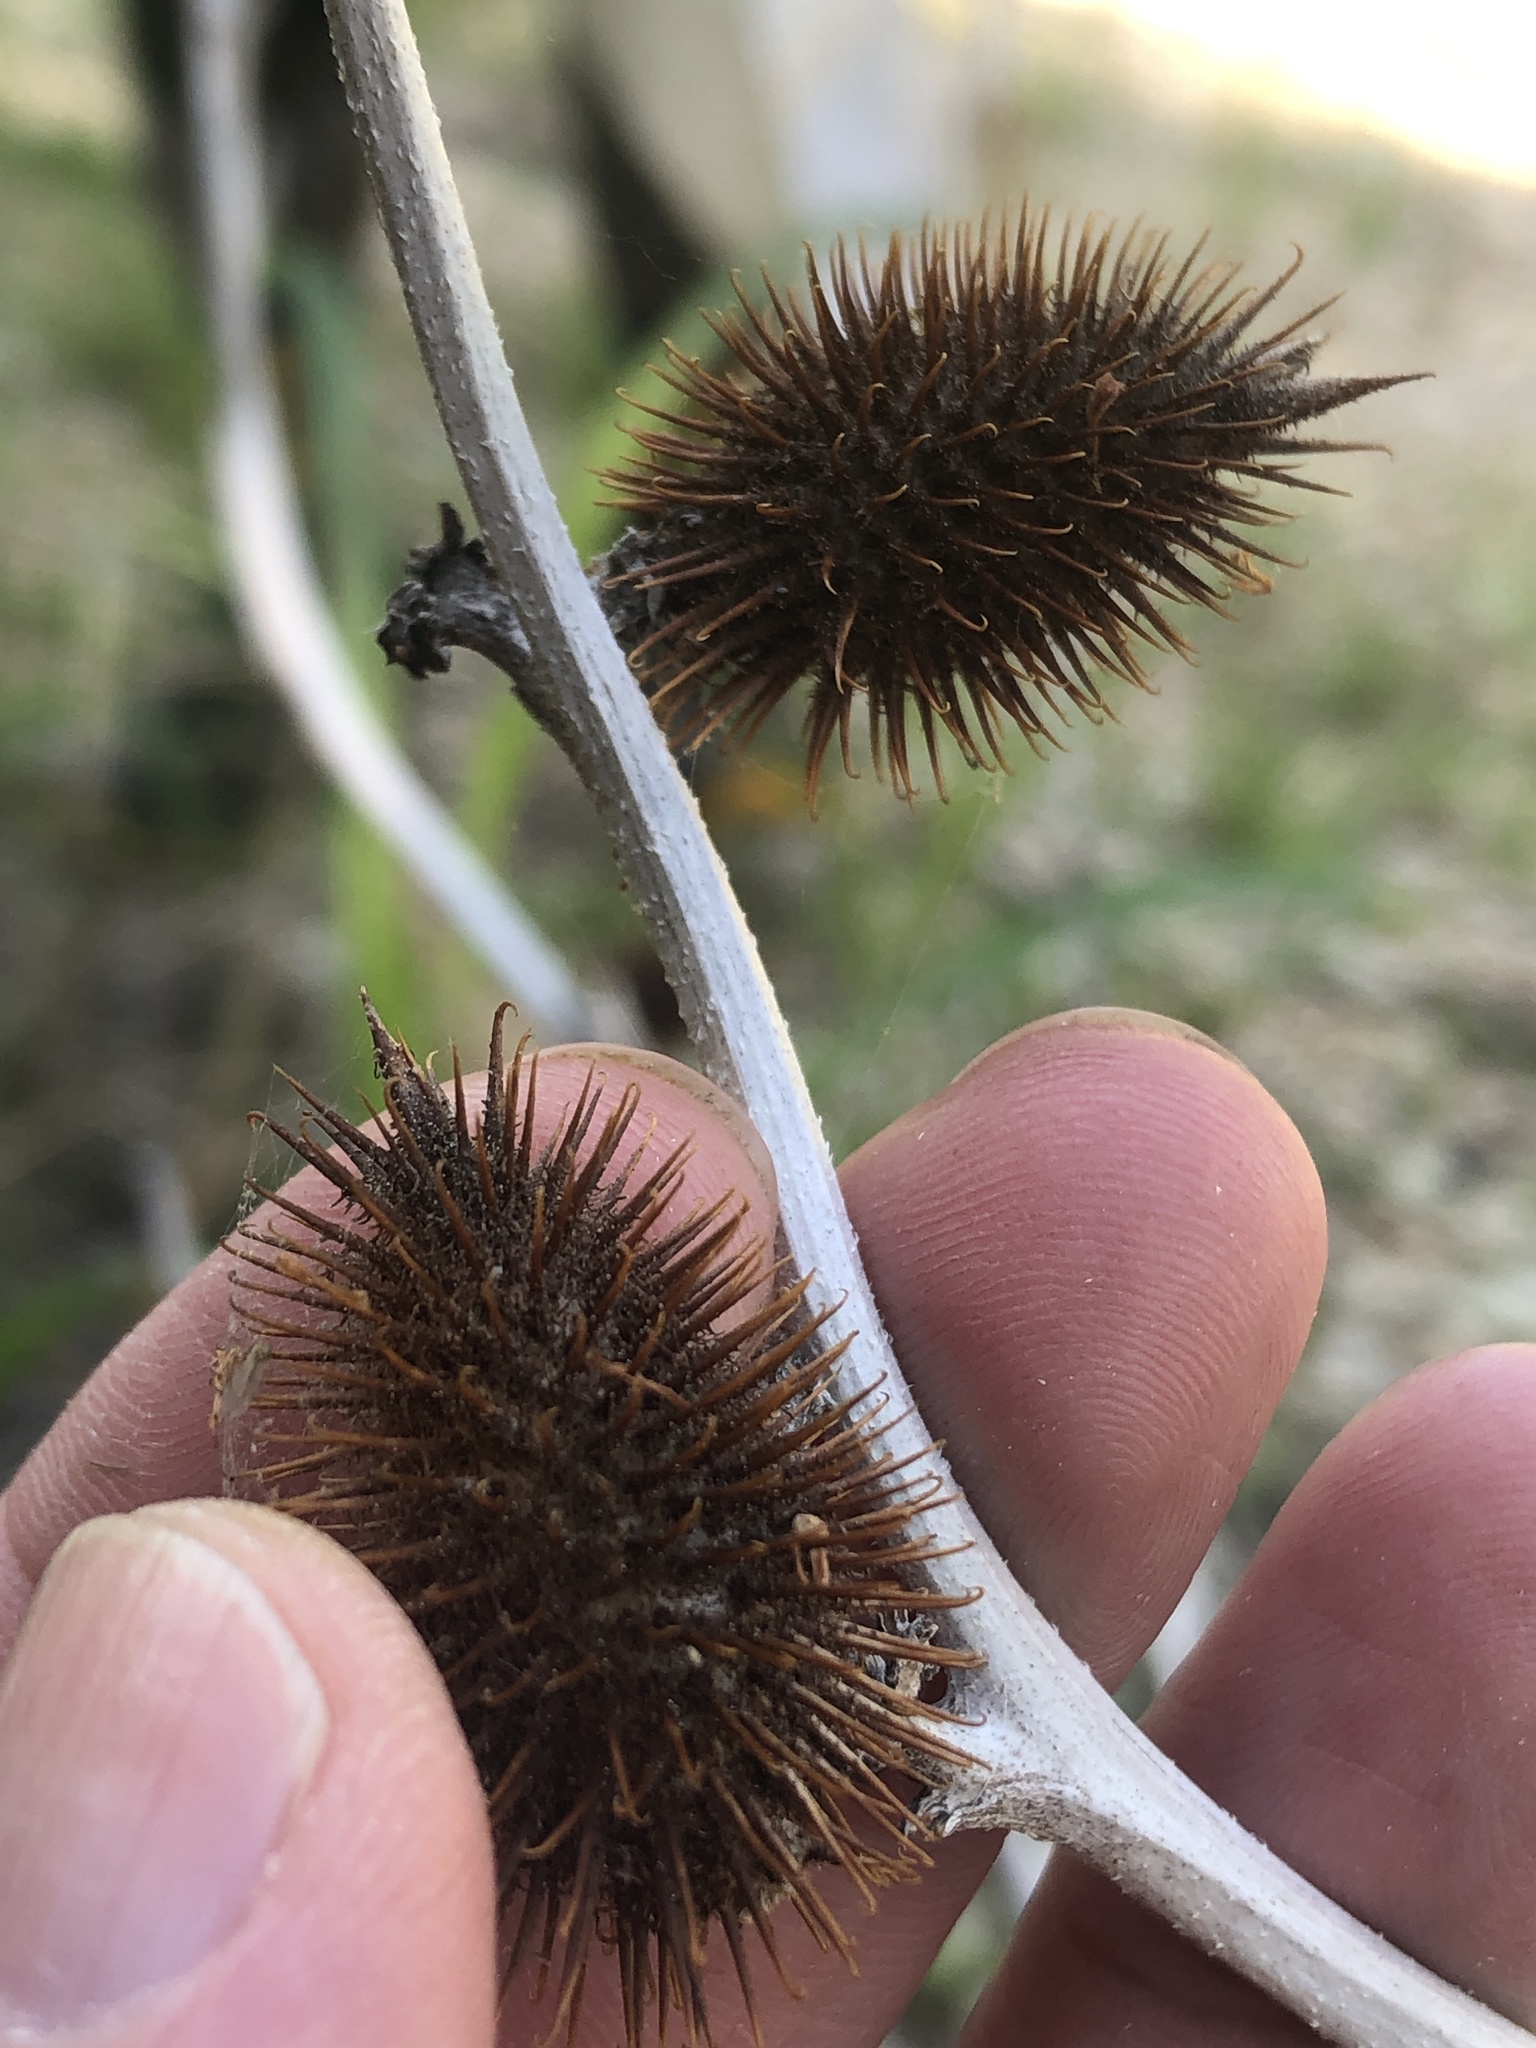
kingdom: Plantae
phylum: Tracheophyta
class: Magnoliopsida
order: Asterales
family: Asteraceae
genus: Xanthium
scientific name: Xanthium strumarium
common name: Rough cocklebur
